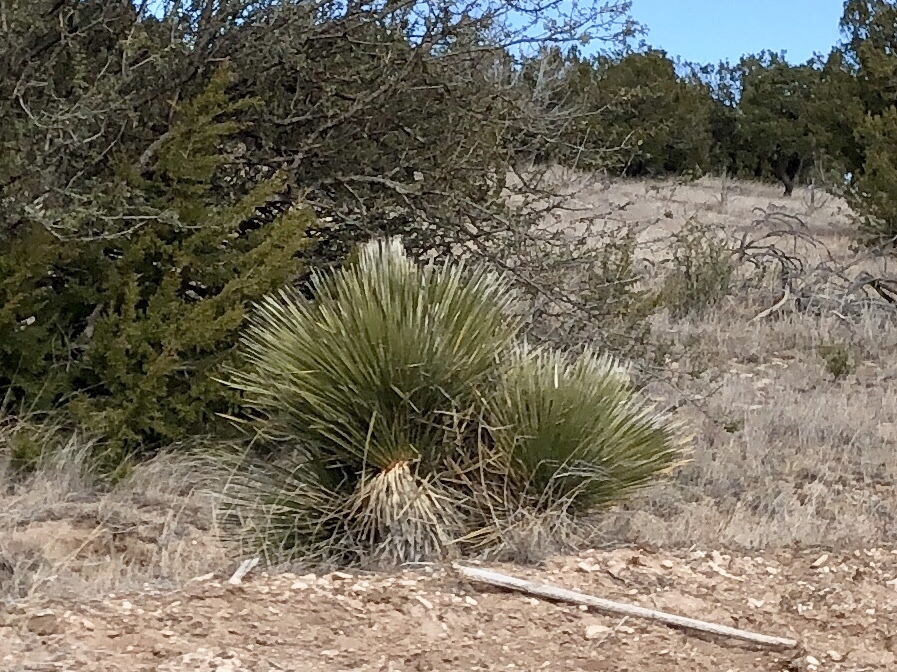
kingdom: Plantae
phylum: Tracheophyta
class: Liliopsida
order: Asparagales
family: Asparagaceae
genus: Yucca
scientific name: Yucca elata
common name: Palmella
